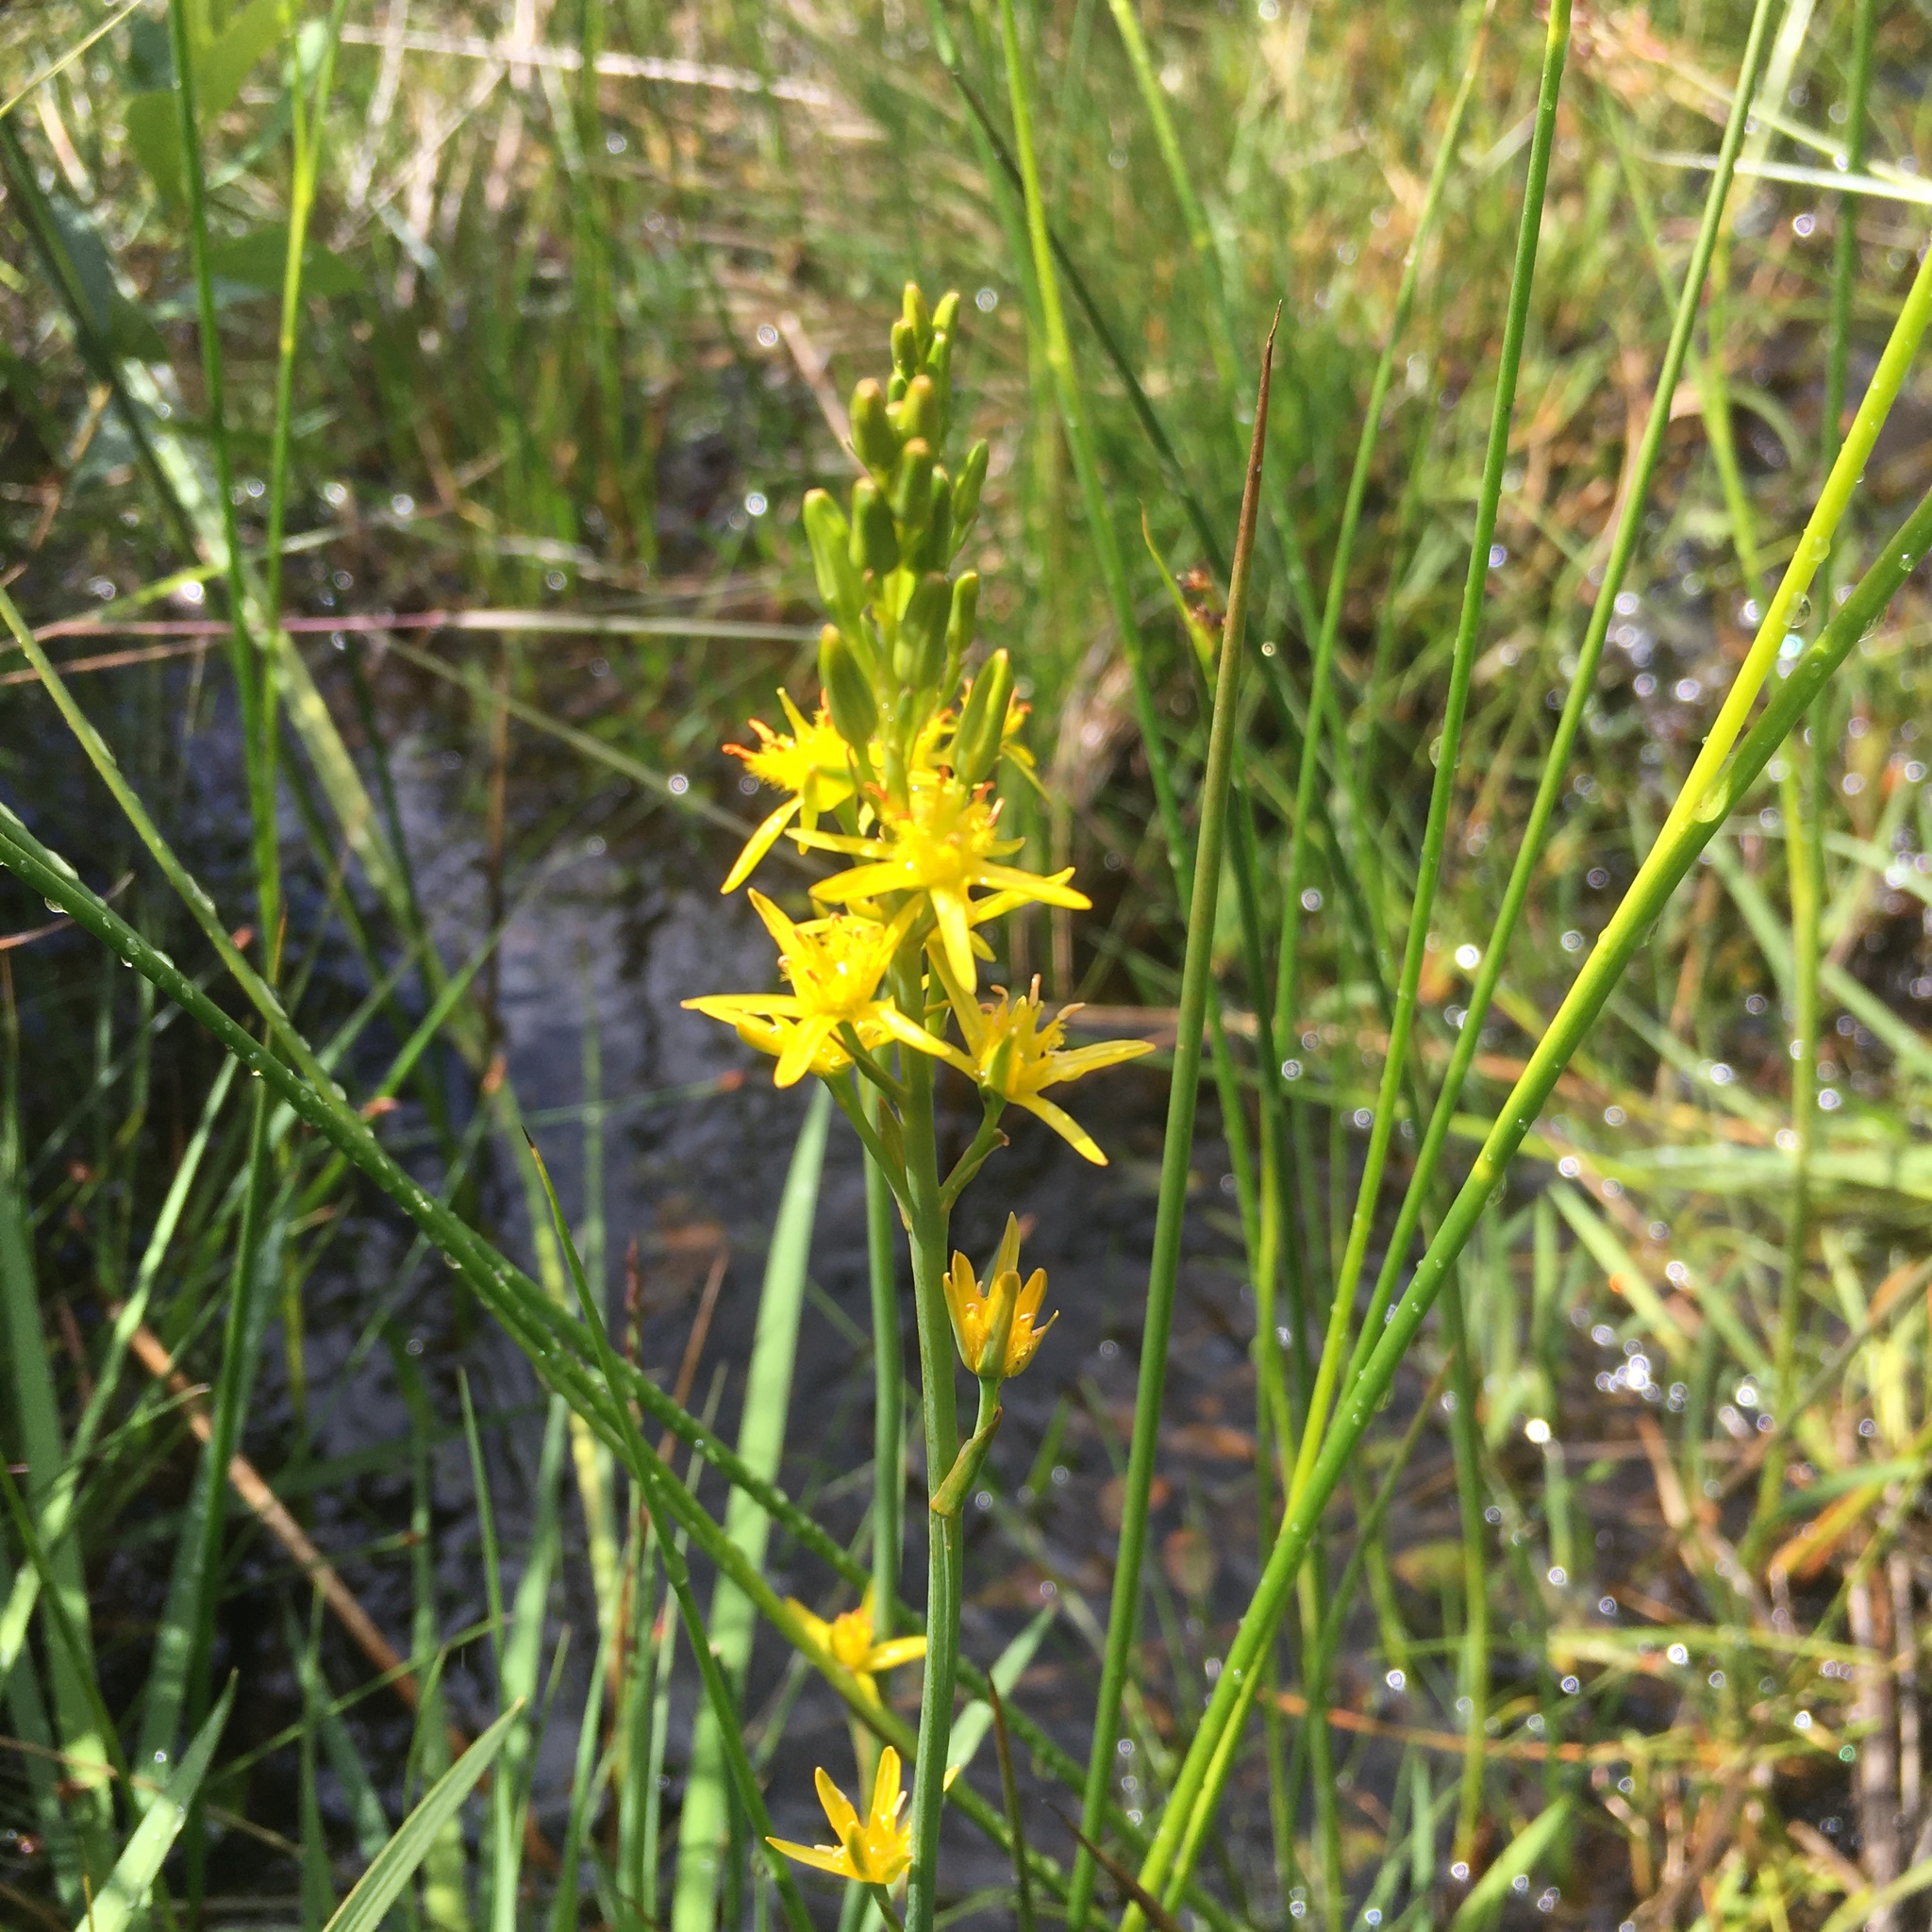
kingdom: Plantae
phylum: Tracheophyta
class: Liliopsida
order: Dioscoreales
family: Nartheciaceae
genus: Narthecium
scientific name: Narthecium ossifragum
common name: Bog asphodel
